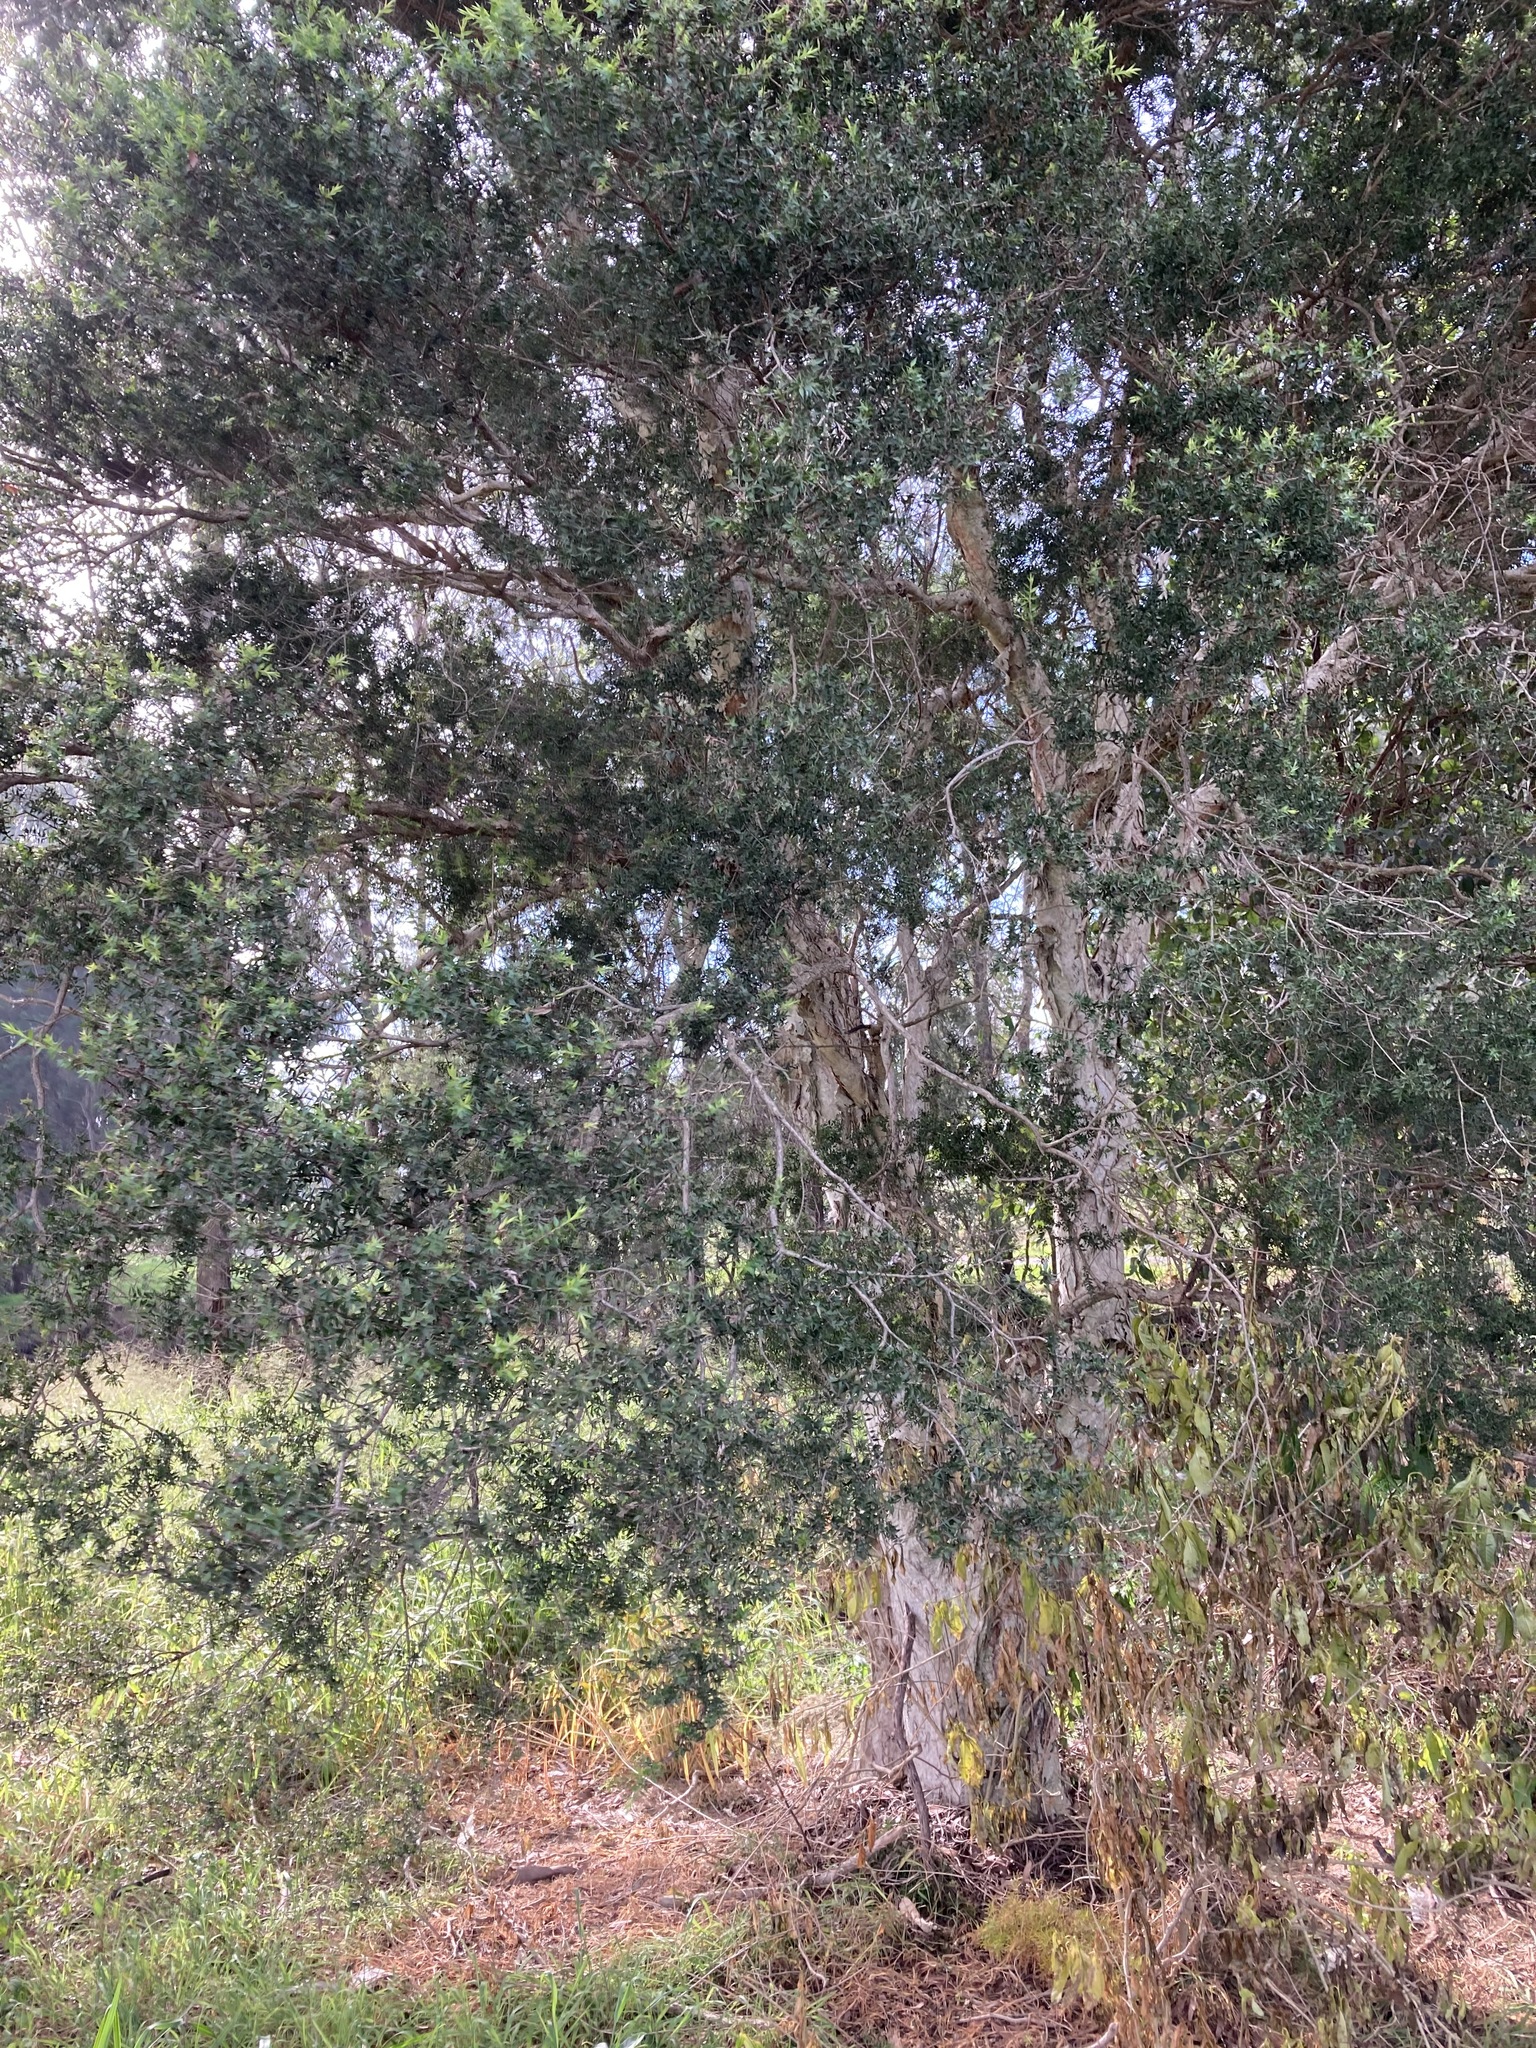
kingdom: Plantae
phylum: Tracheophyta
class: Magnoliopsida
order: Myrtales
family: Myrtaceae
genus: Melaleuca
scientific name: Melaleuca styphelioides
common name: Prickly paperbark
